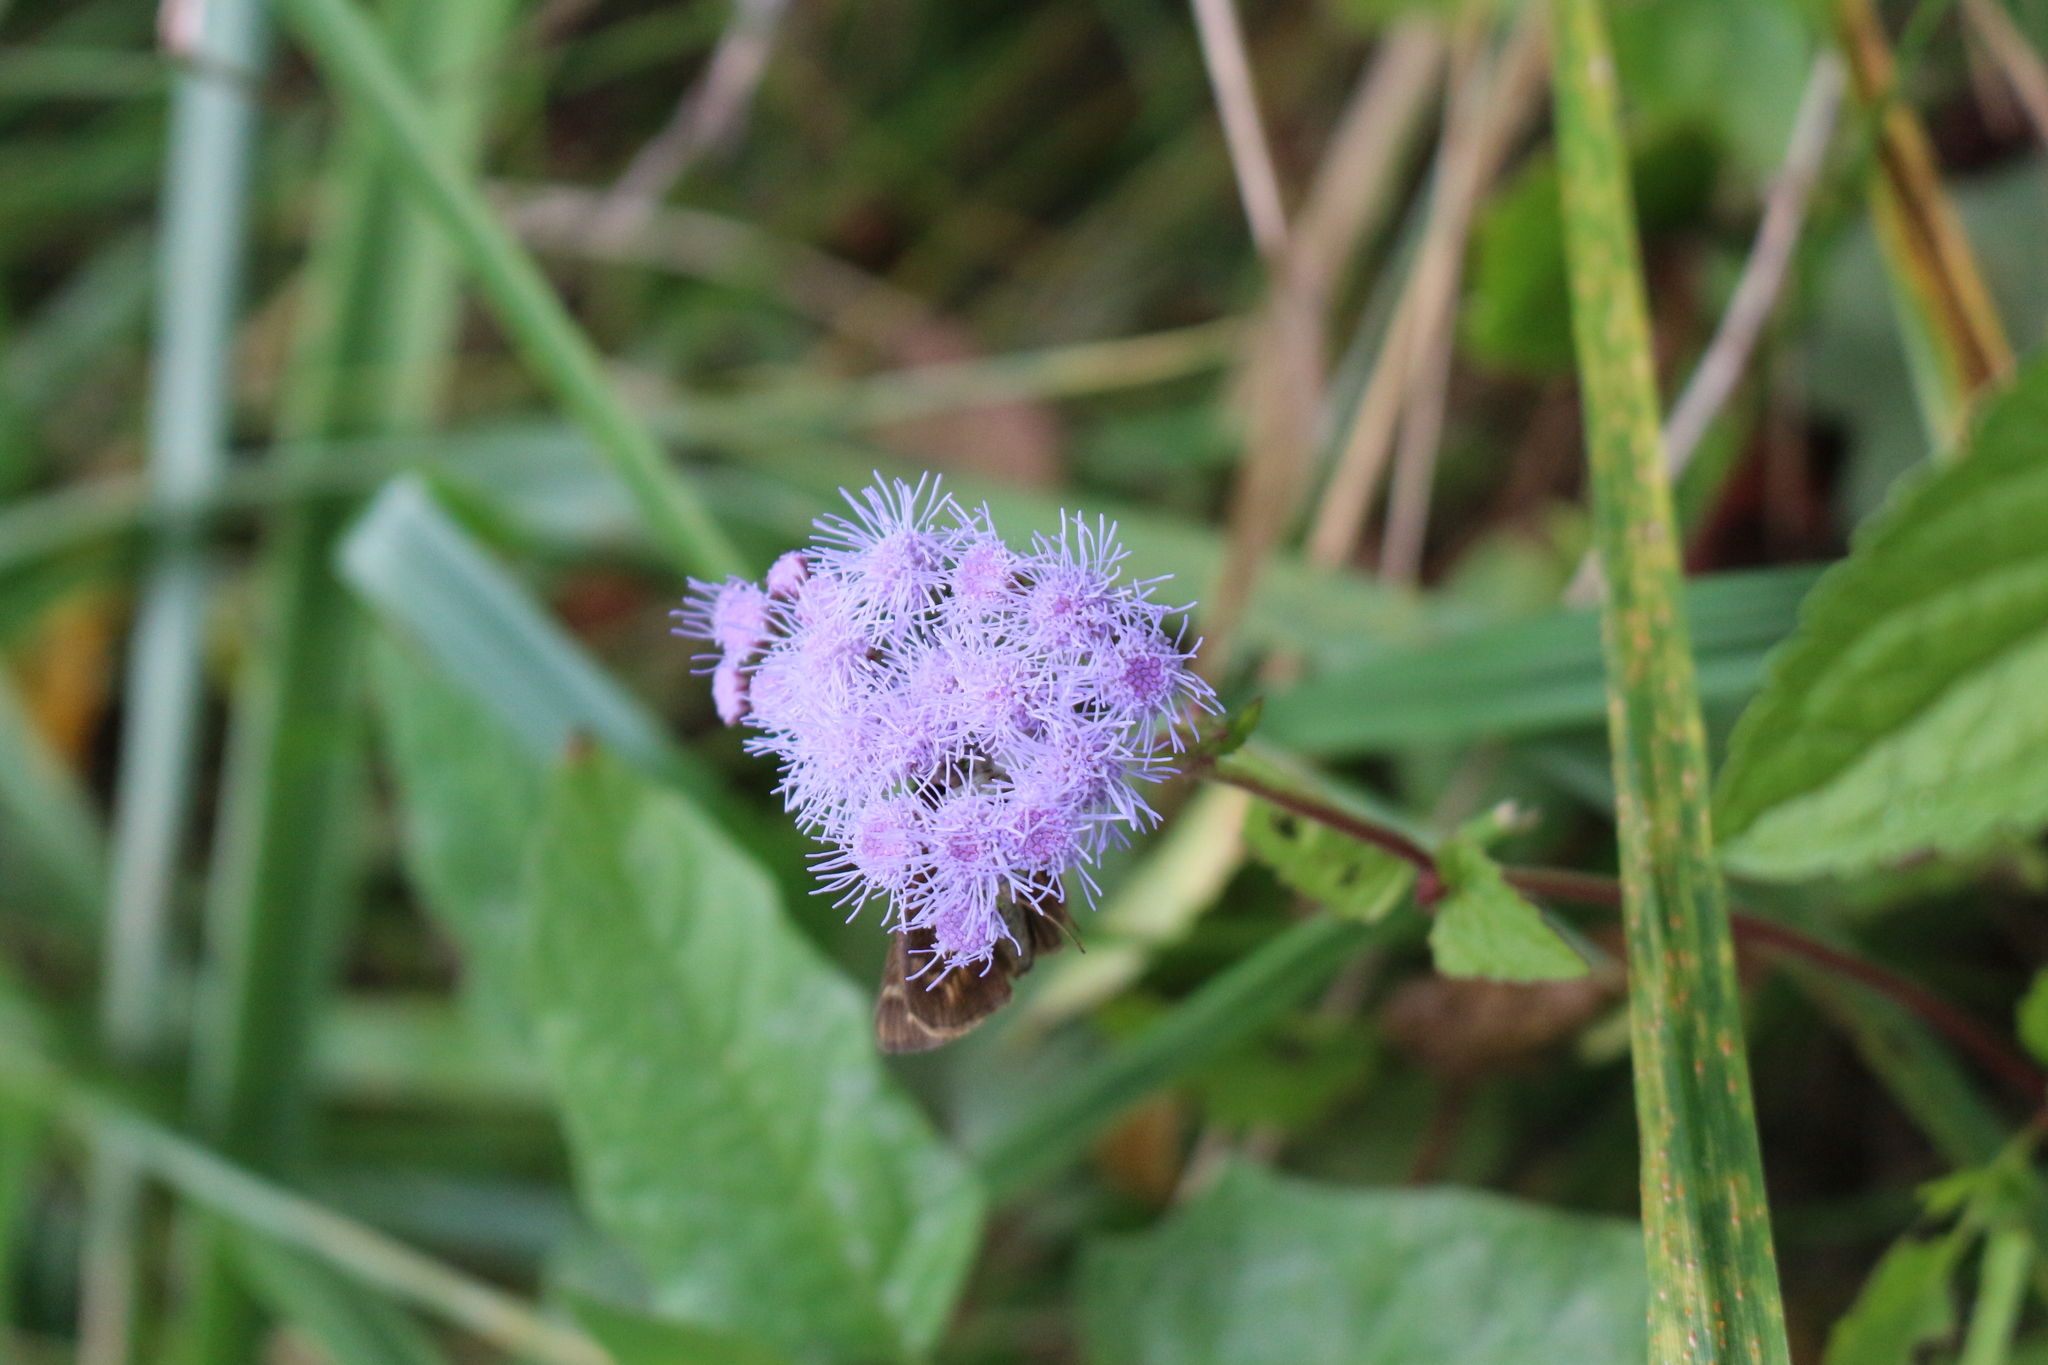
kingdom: Plantae
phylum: Tracheophyta
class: Magnoliopsida
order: Asterales
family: Asteraceae
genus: Conoclinium
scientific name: Conoclinium coelestinum
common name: Blue mistflower
